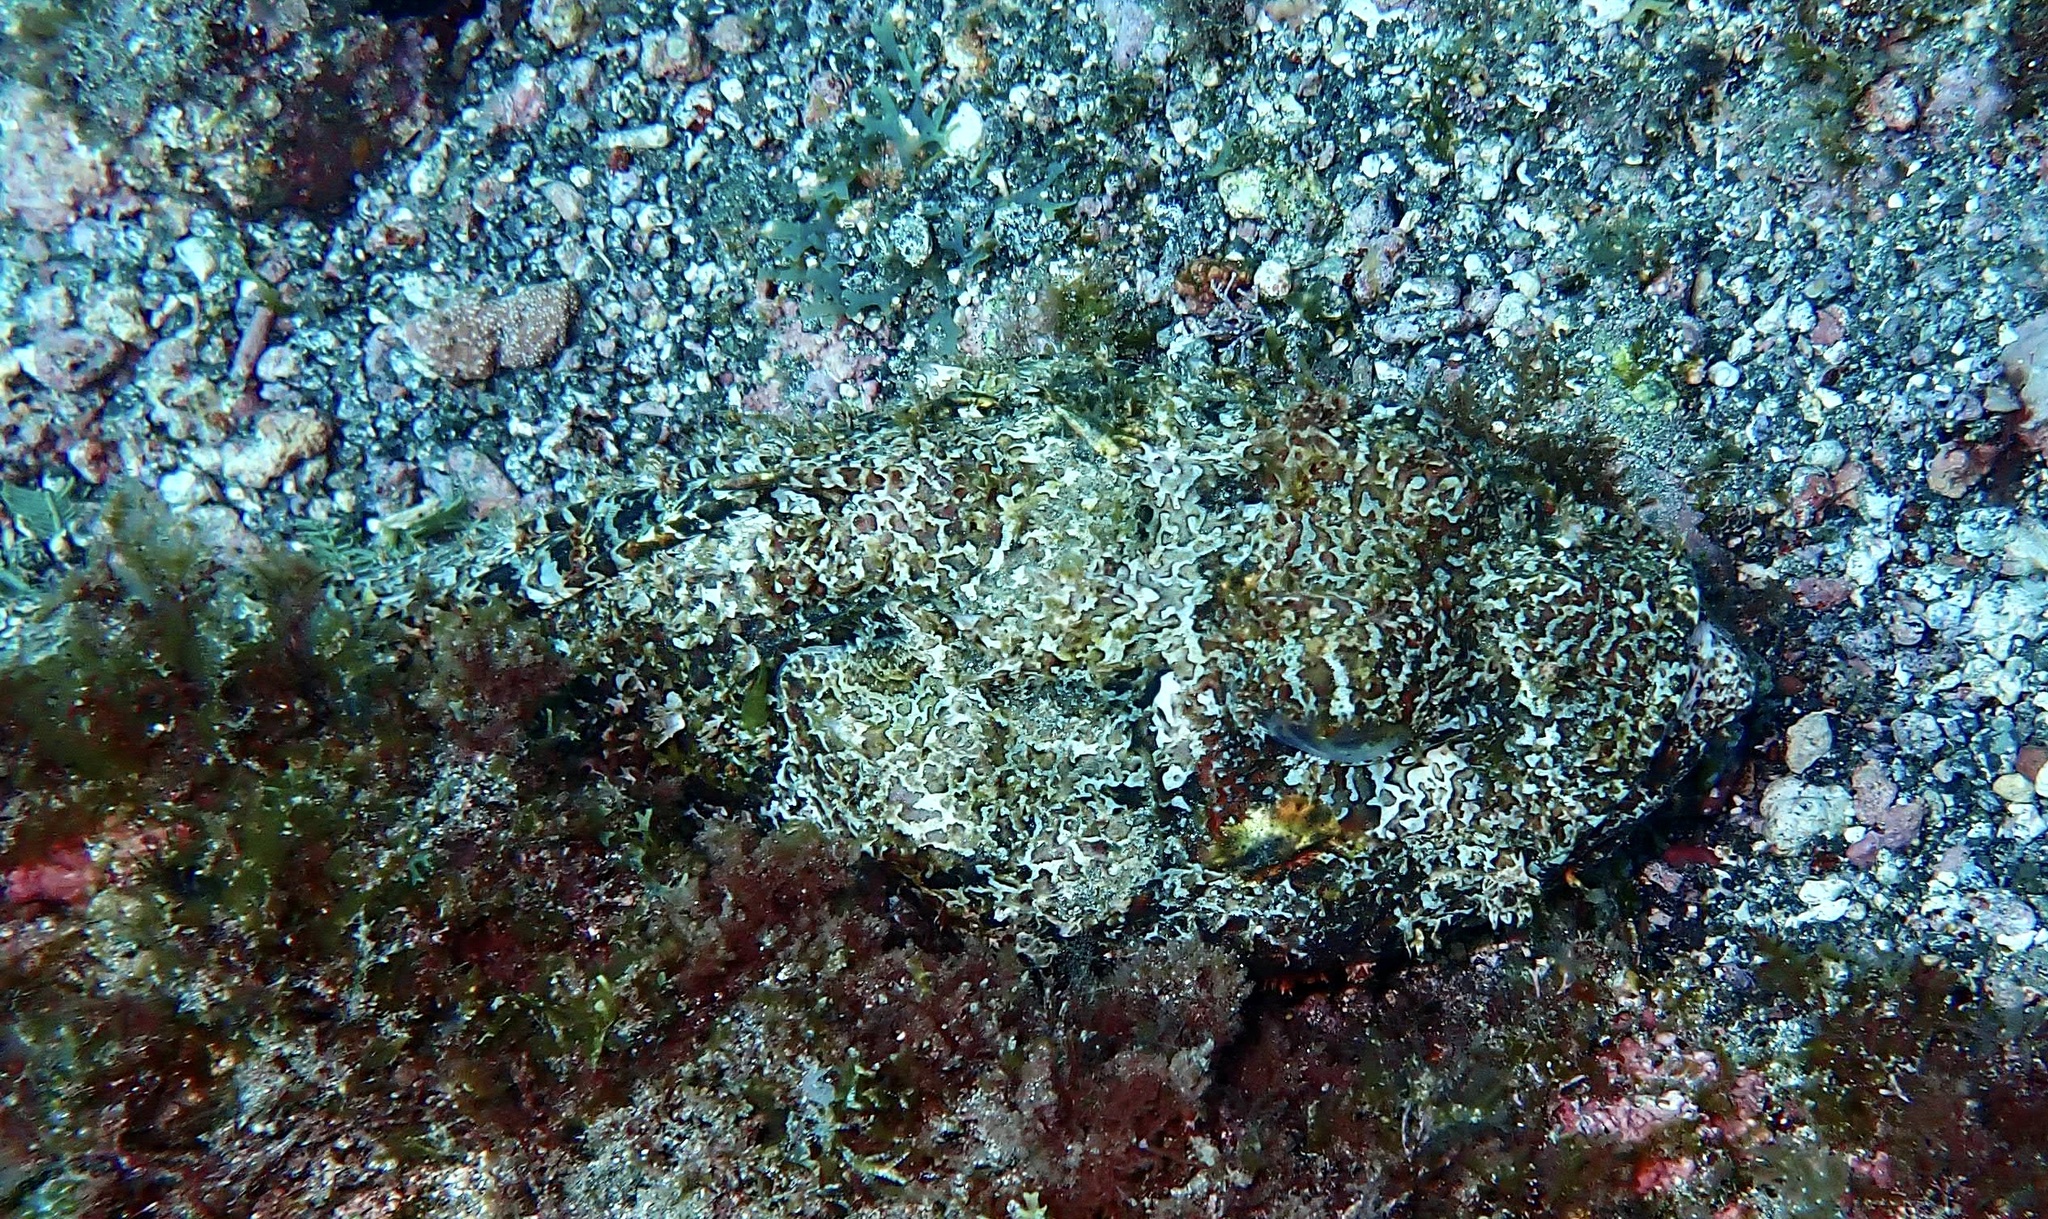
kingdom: Animalia
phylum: Chordata
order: Scorpaeniformes
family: Scorpaenidae
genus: Scorpaena
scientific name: Scorpaena laevis
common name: Senegalese rockfish
